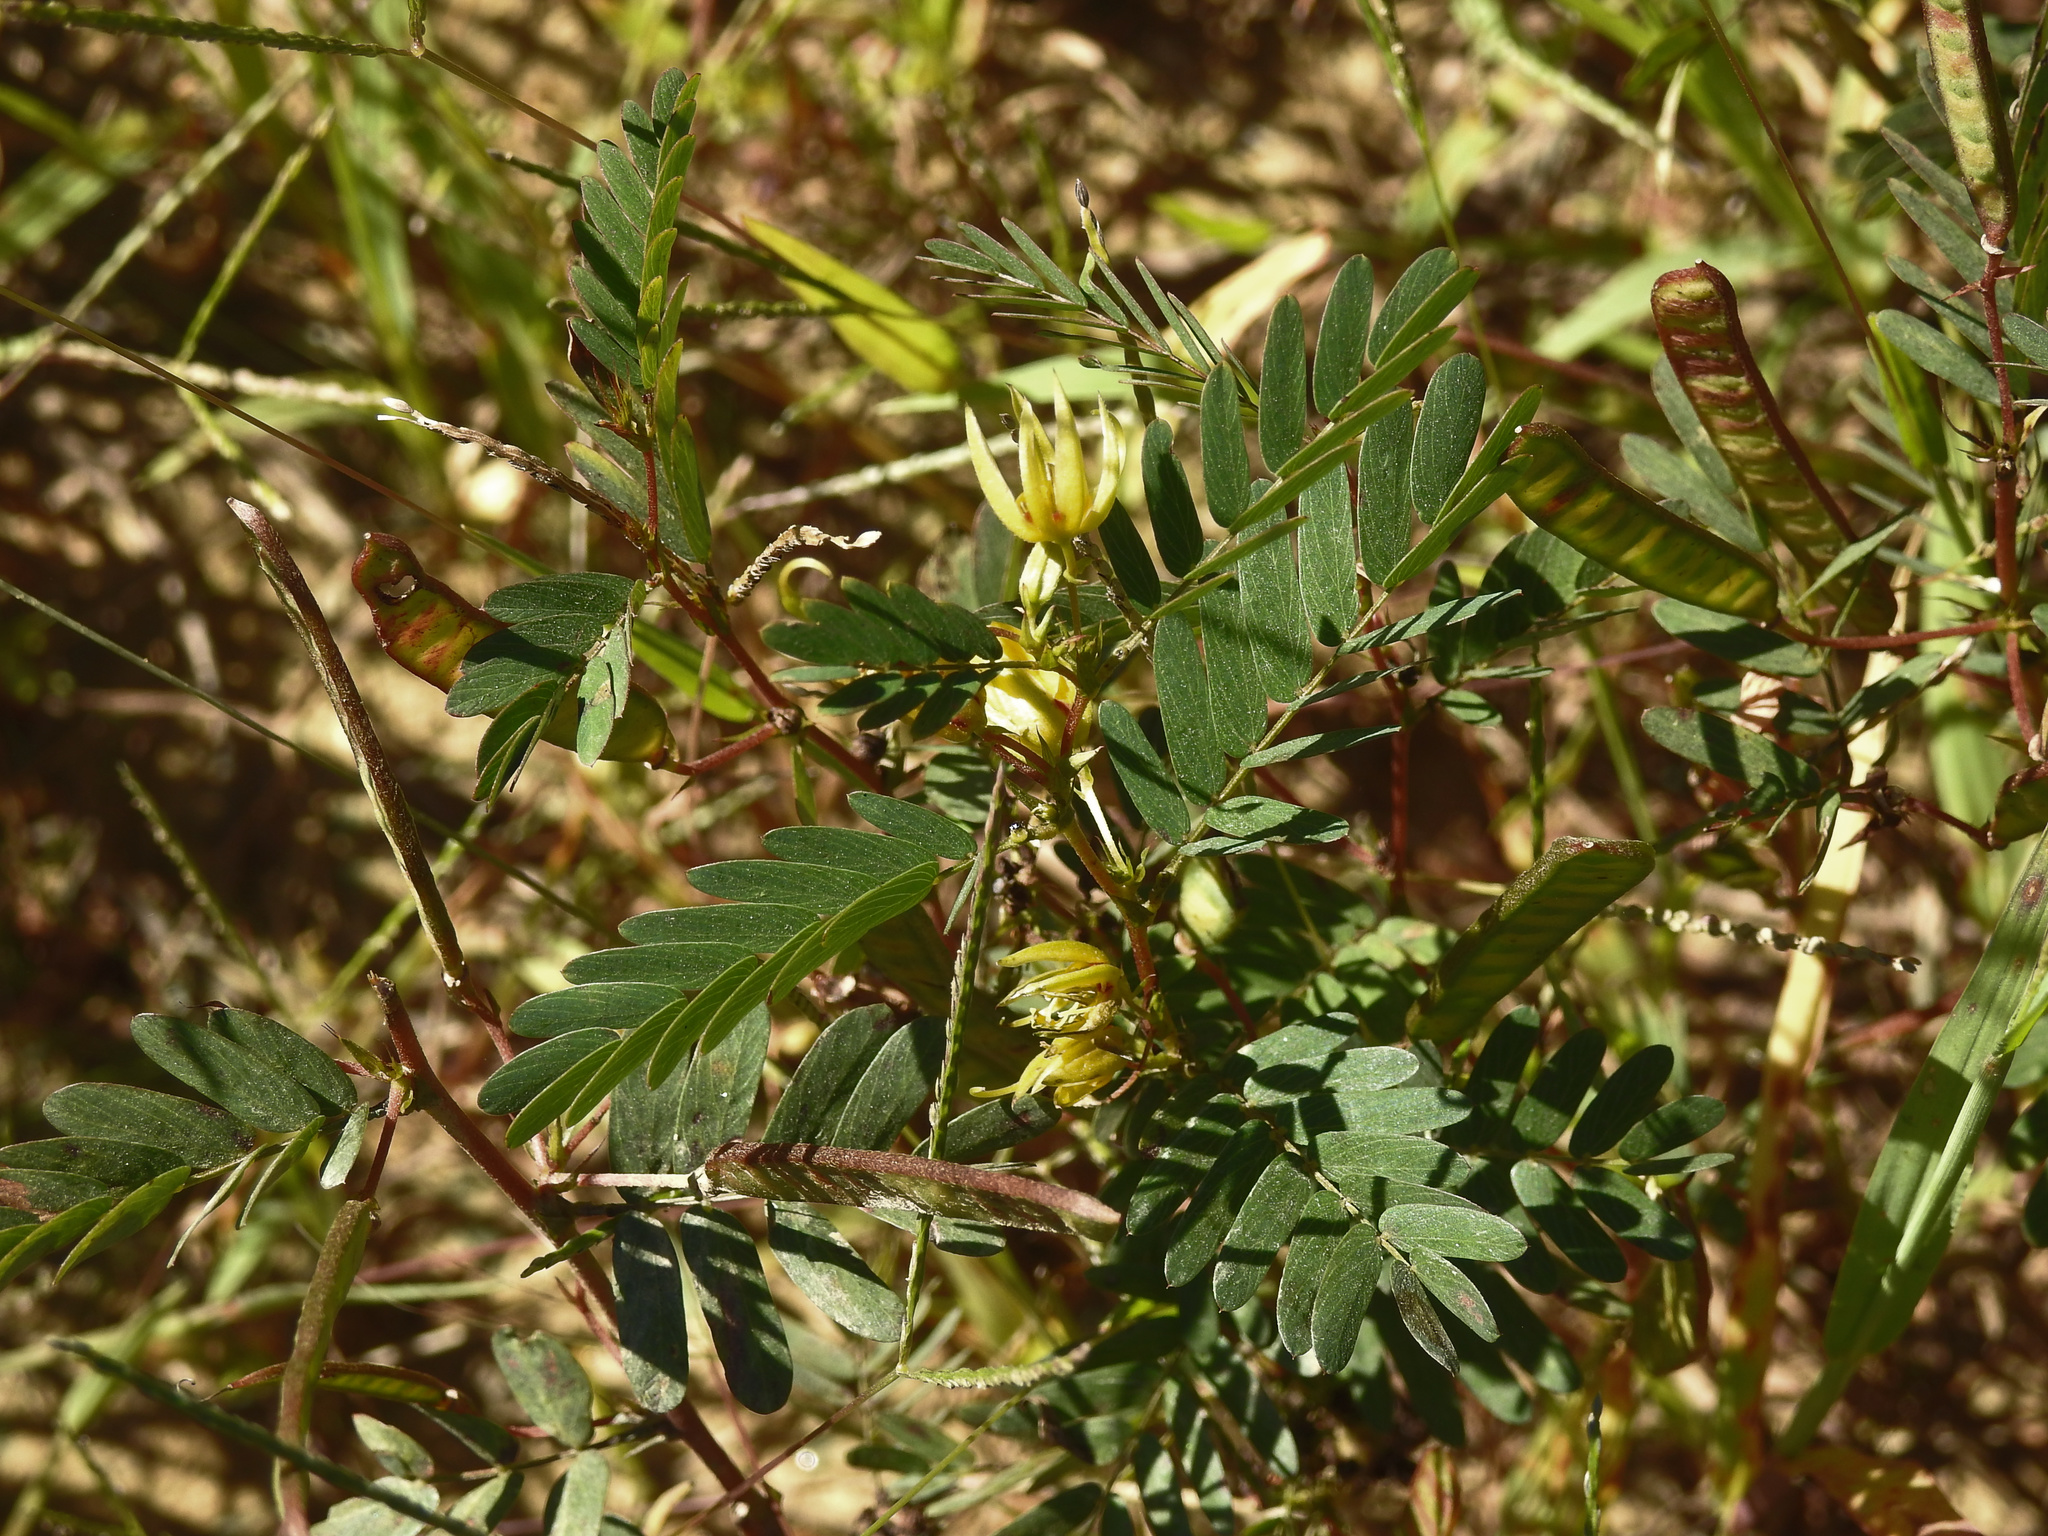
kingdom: Plantae
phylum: Tracheophyta
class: Magnoliopsida
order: Fabales
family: Fabaceae
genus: Chamaecrista
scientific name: Chamaecrista fasciculata
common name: Golden cassia
